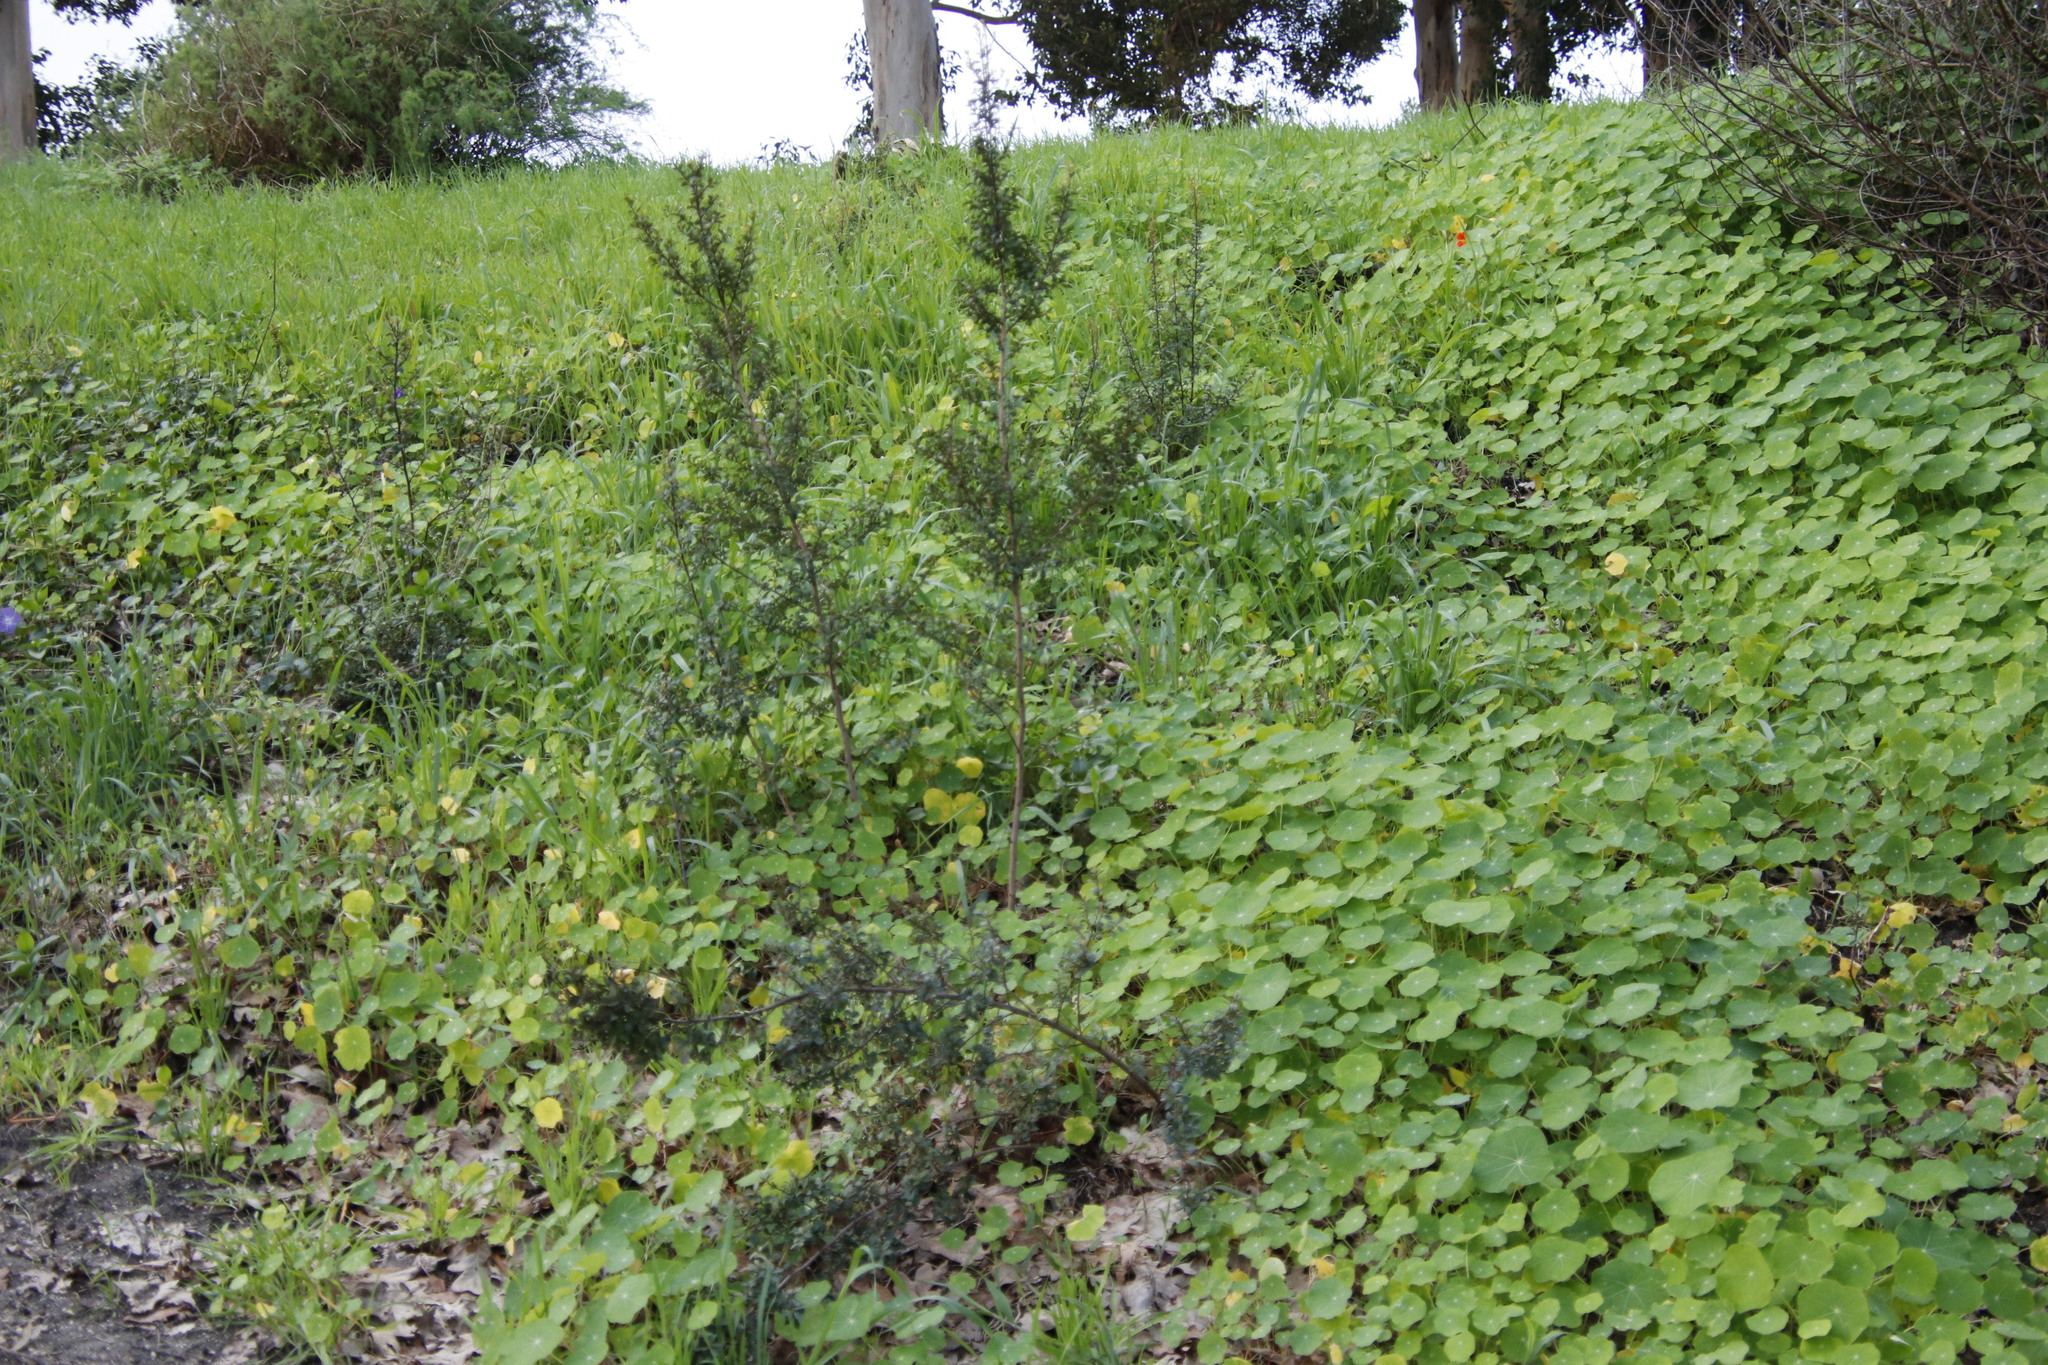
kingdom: Plantae
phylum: Tracheophyta
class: Magnoliopsida
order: Ericales
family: Primulaceae
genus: Myrsine
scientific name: Myrsine africana
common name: African-boxwood
